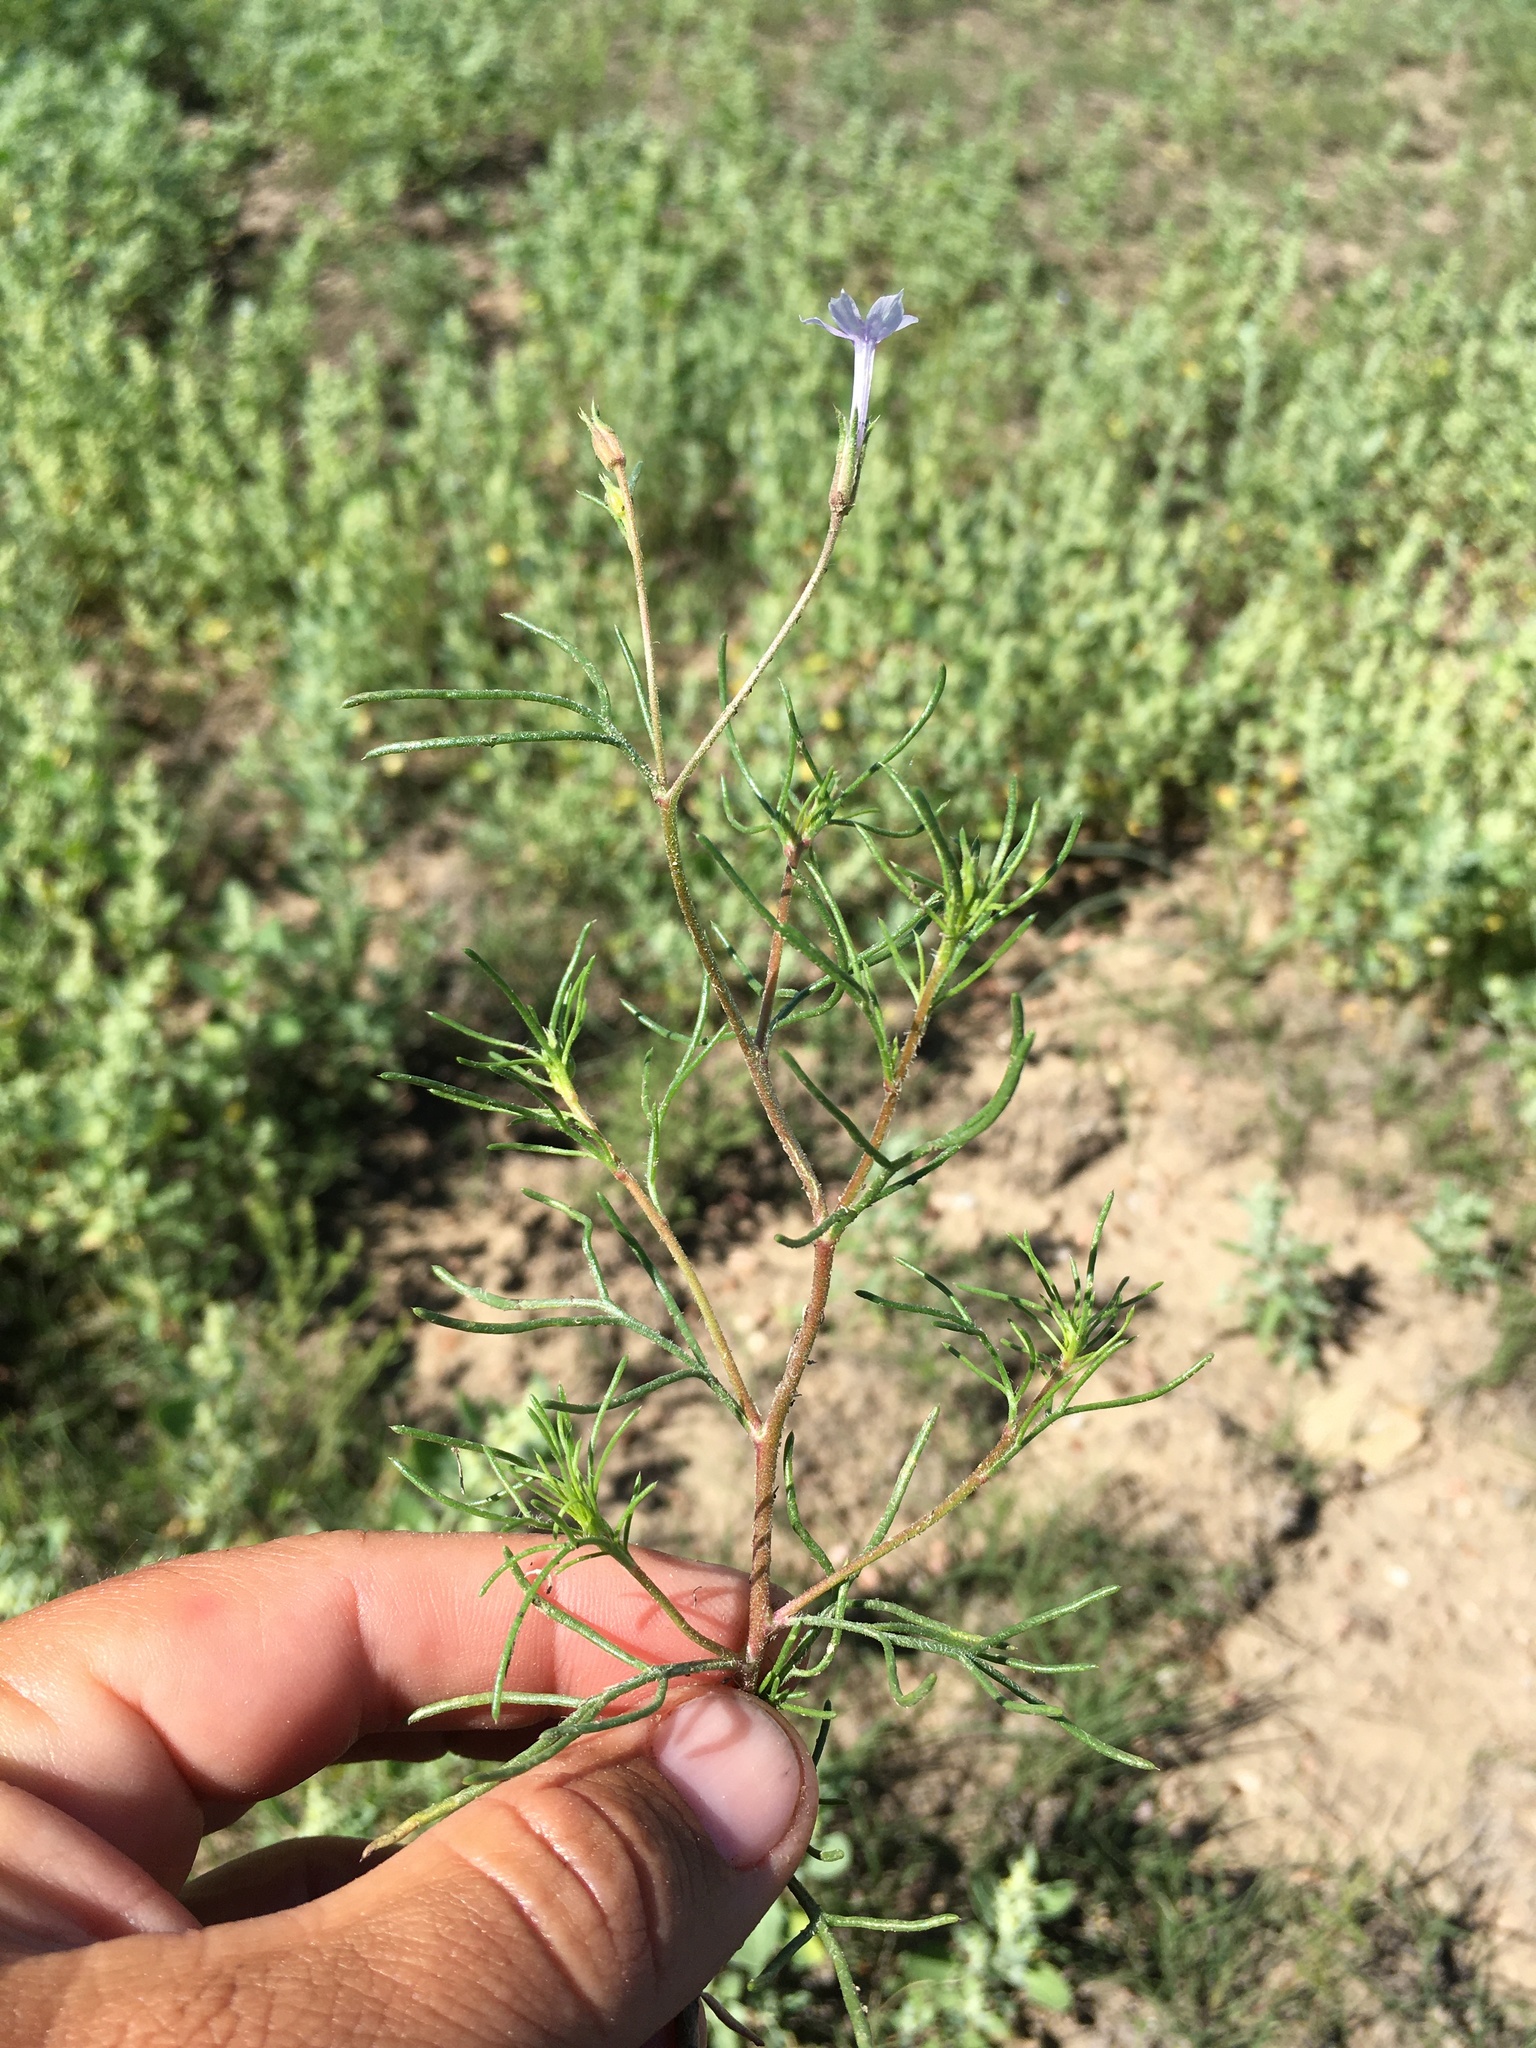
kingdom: Plantae
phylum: Tracheophyta
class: Magnoliopsida
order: Ericales
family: Polemoniaceae
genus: Ipomopsis
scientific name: Ipomopsis laxiflora
